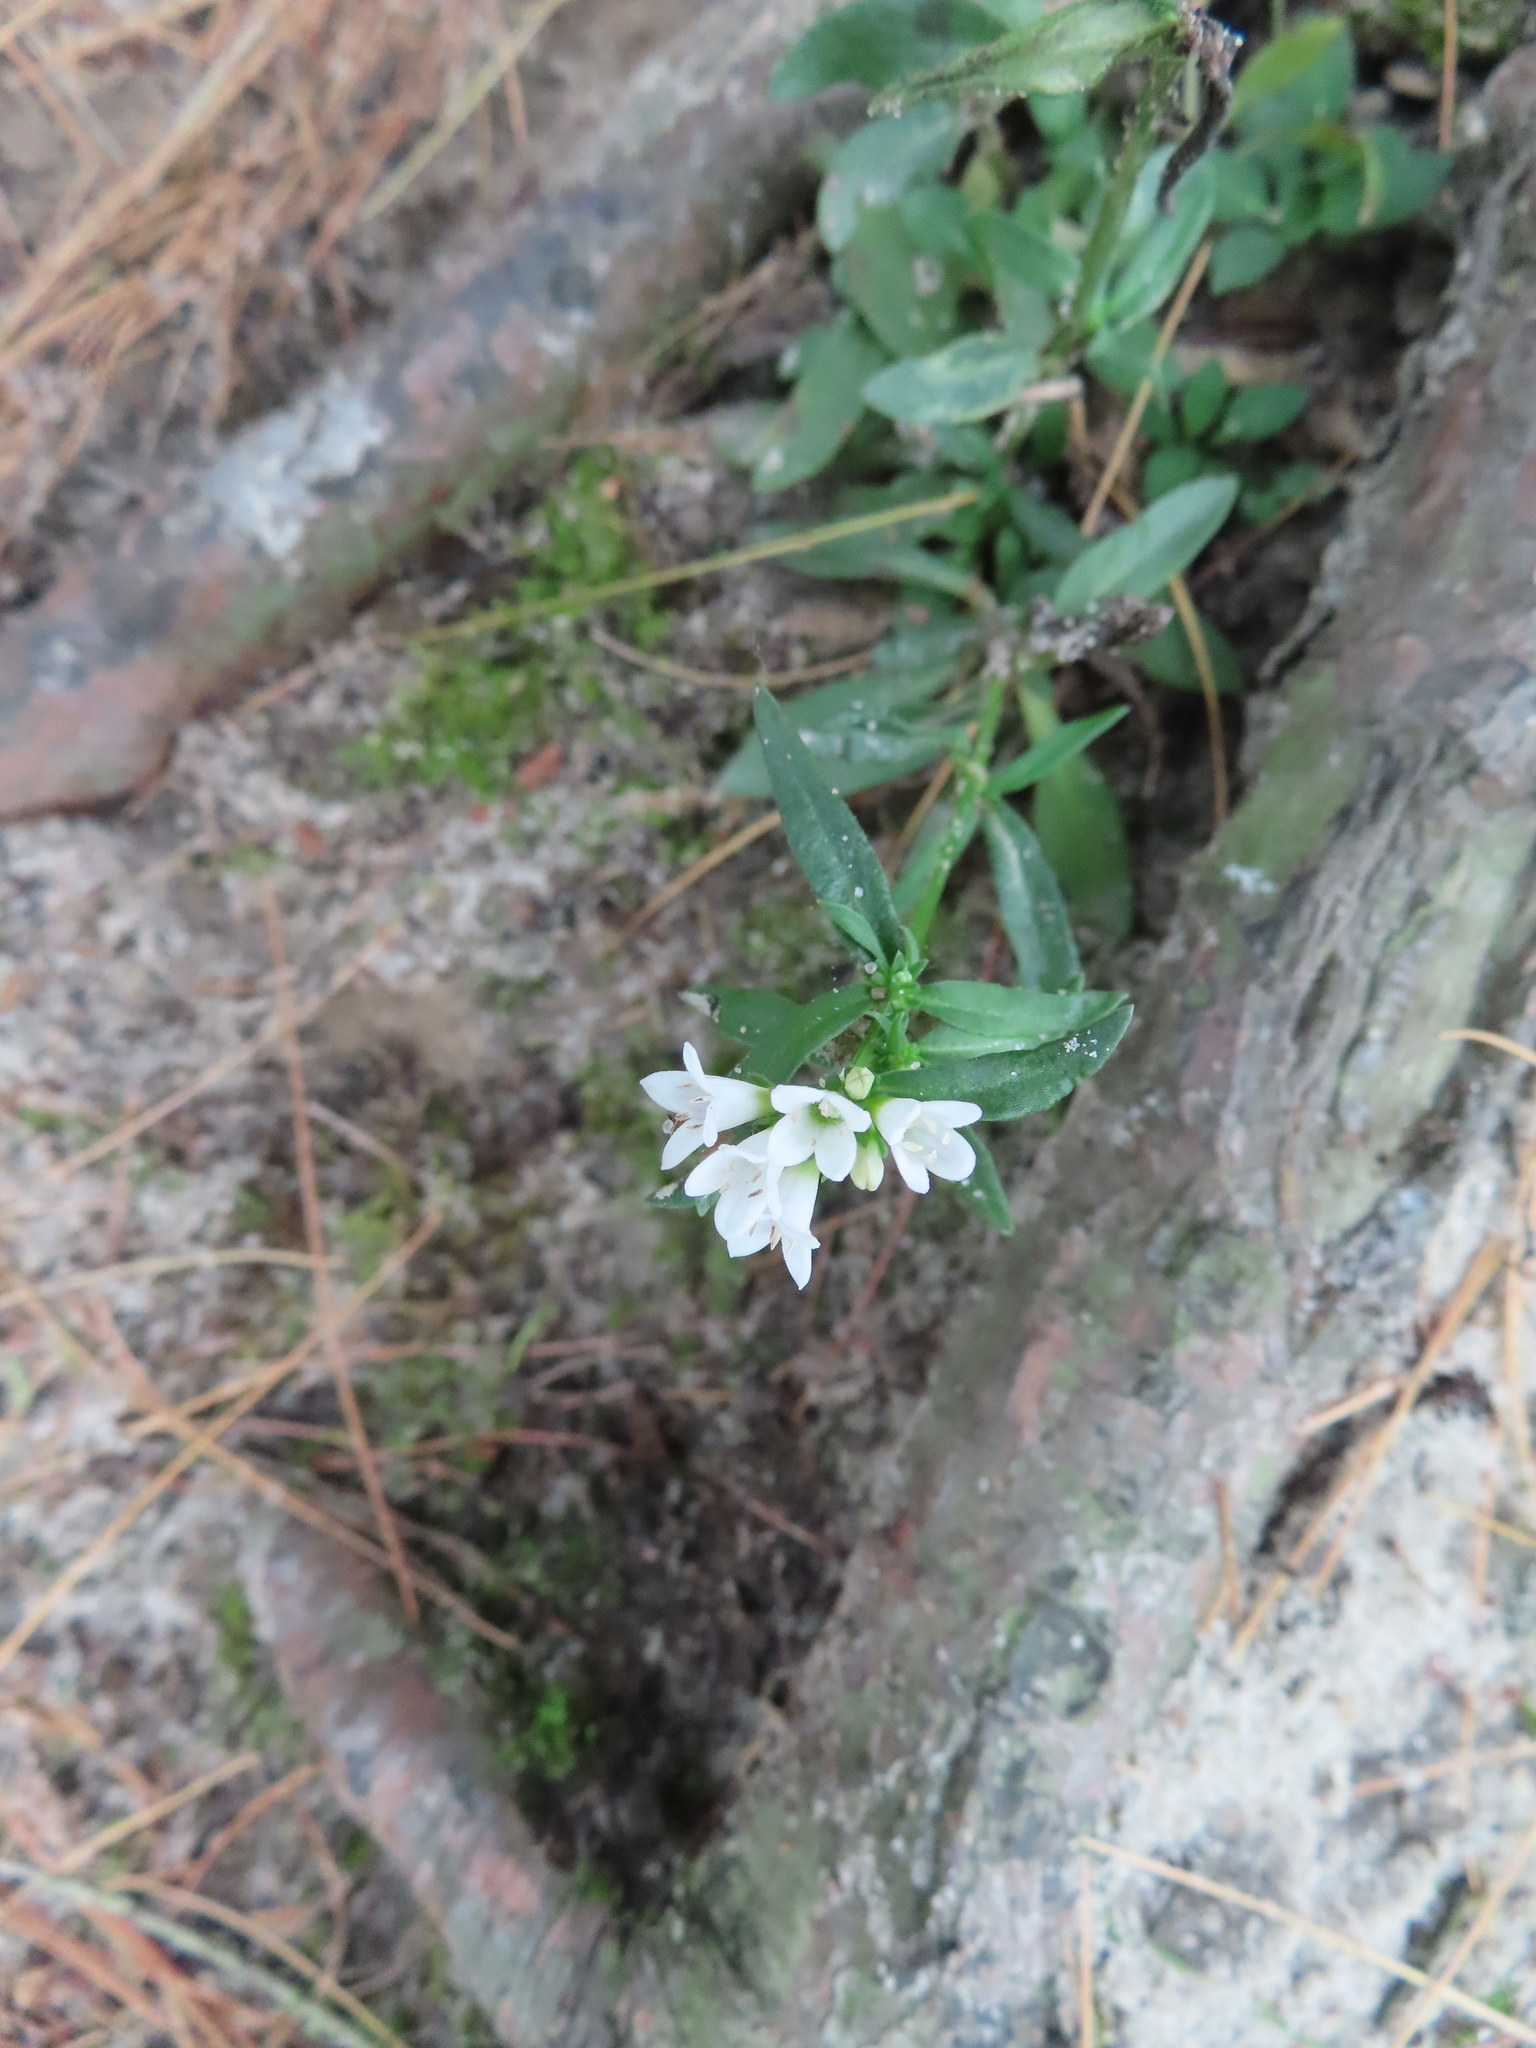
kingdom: Plantae
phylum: Tracheophyta
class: Magnoliopsida
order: Gentianales
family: Rubiaceae
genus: Houstonia
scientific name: Houstonia longifolia
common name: Long-leaved bluets
